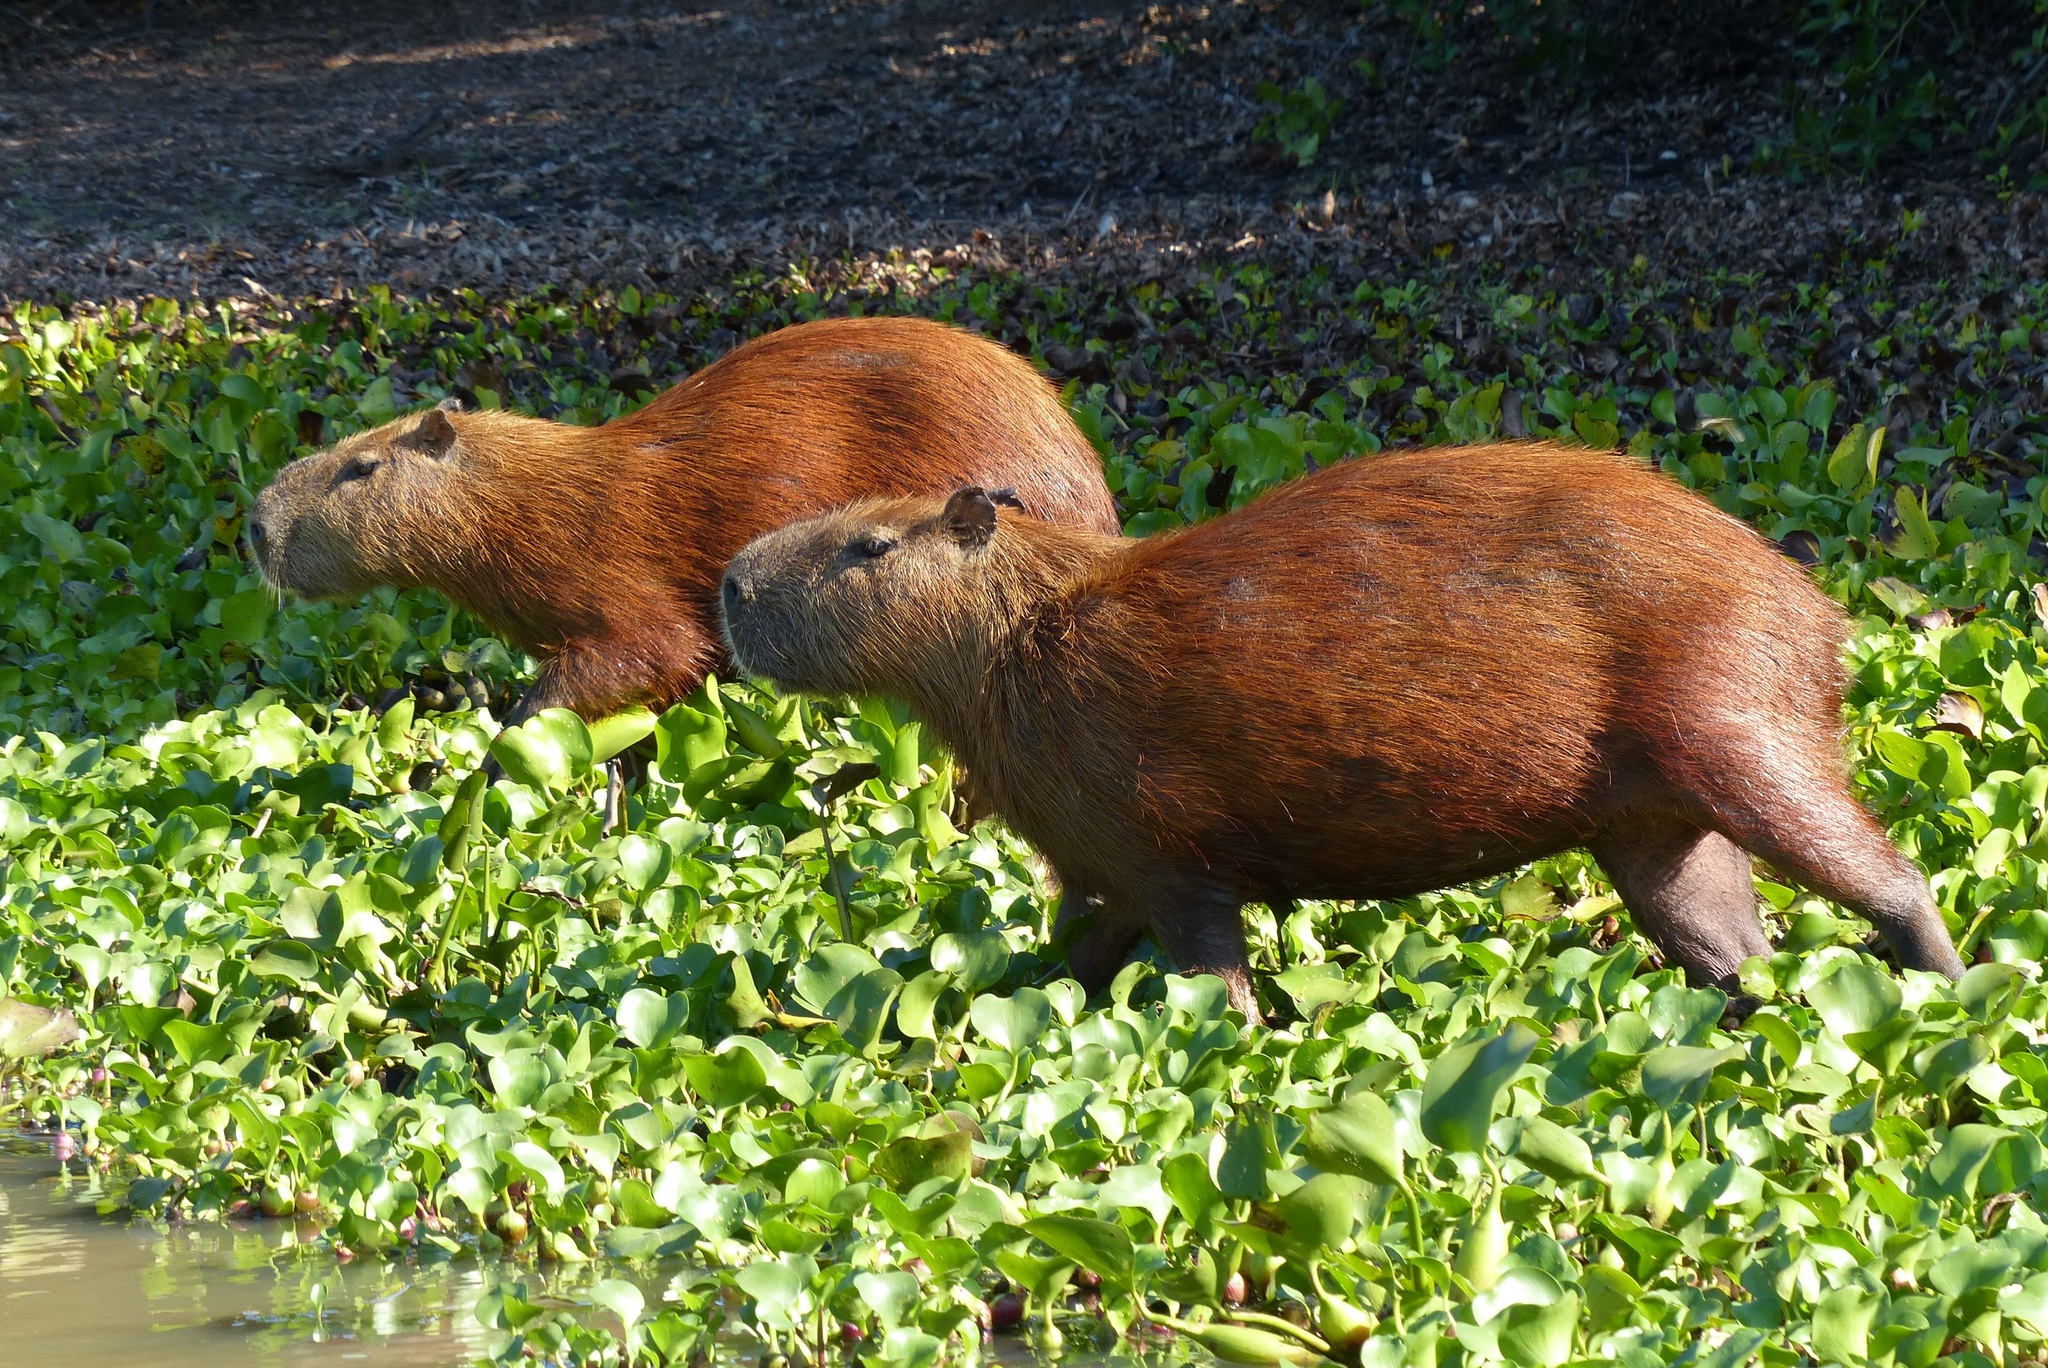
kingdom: Animalia
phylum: Chordata
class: Mammalia
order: Rodentia
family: Caviidae
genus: Hydrochoerus
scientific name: Hydrochoerus hydrochaeris
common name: Capybara
